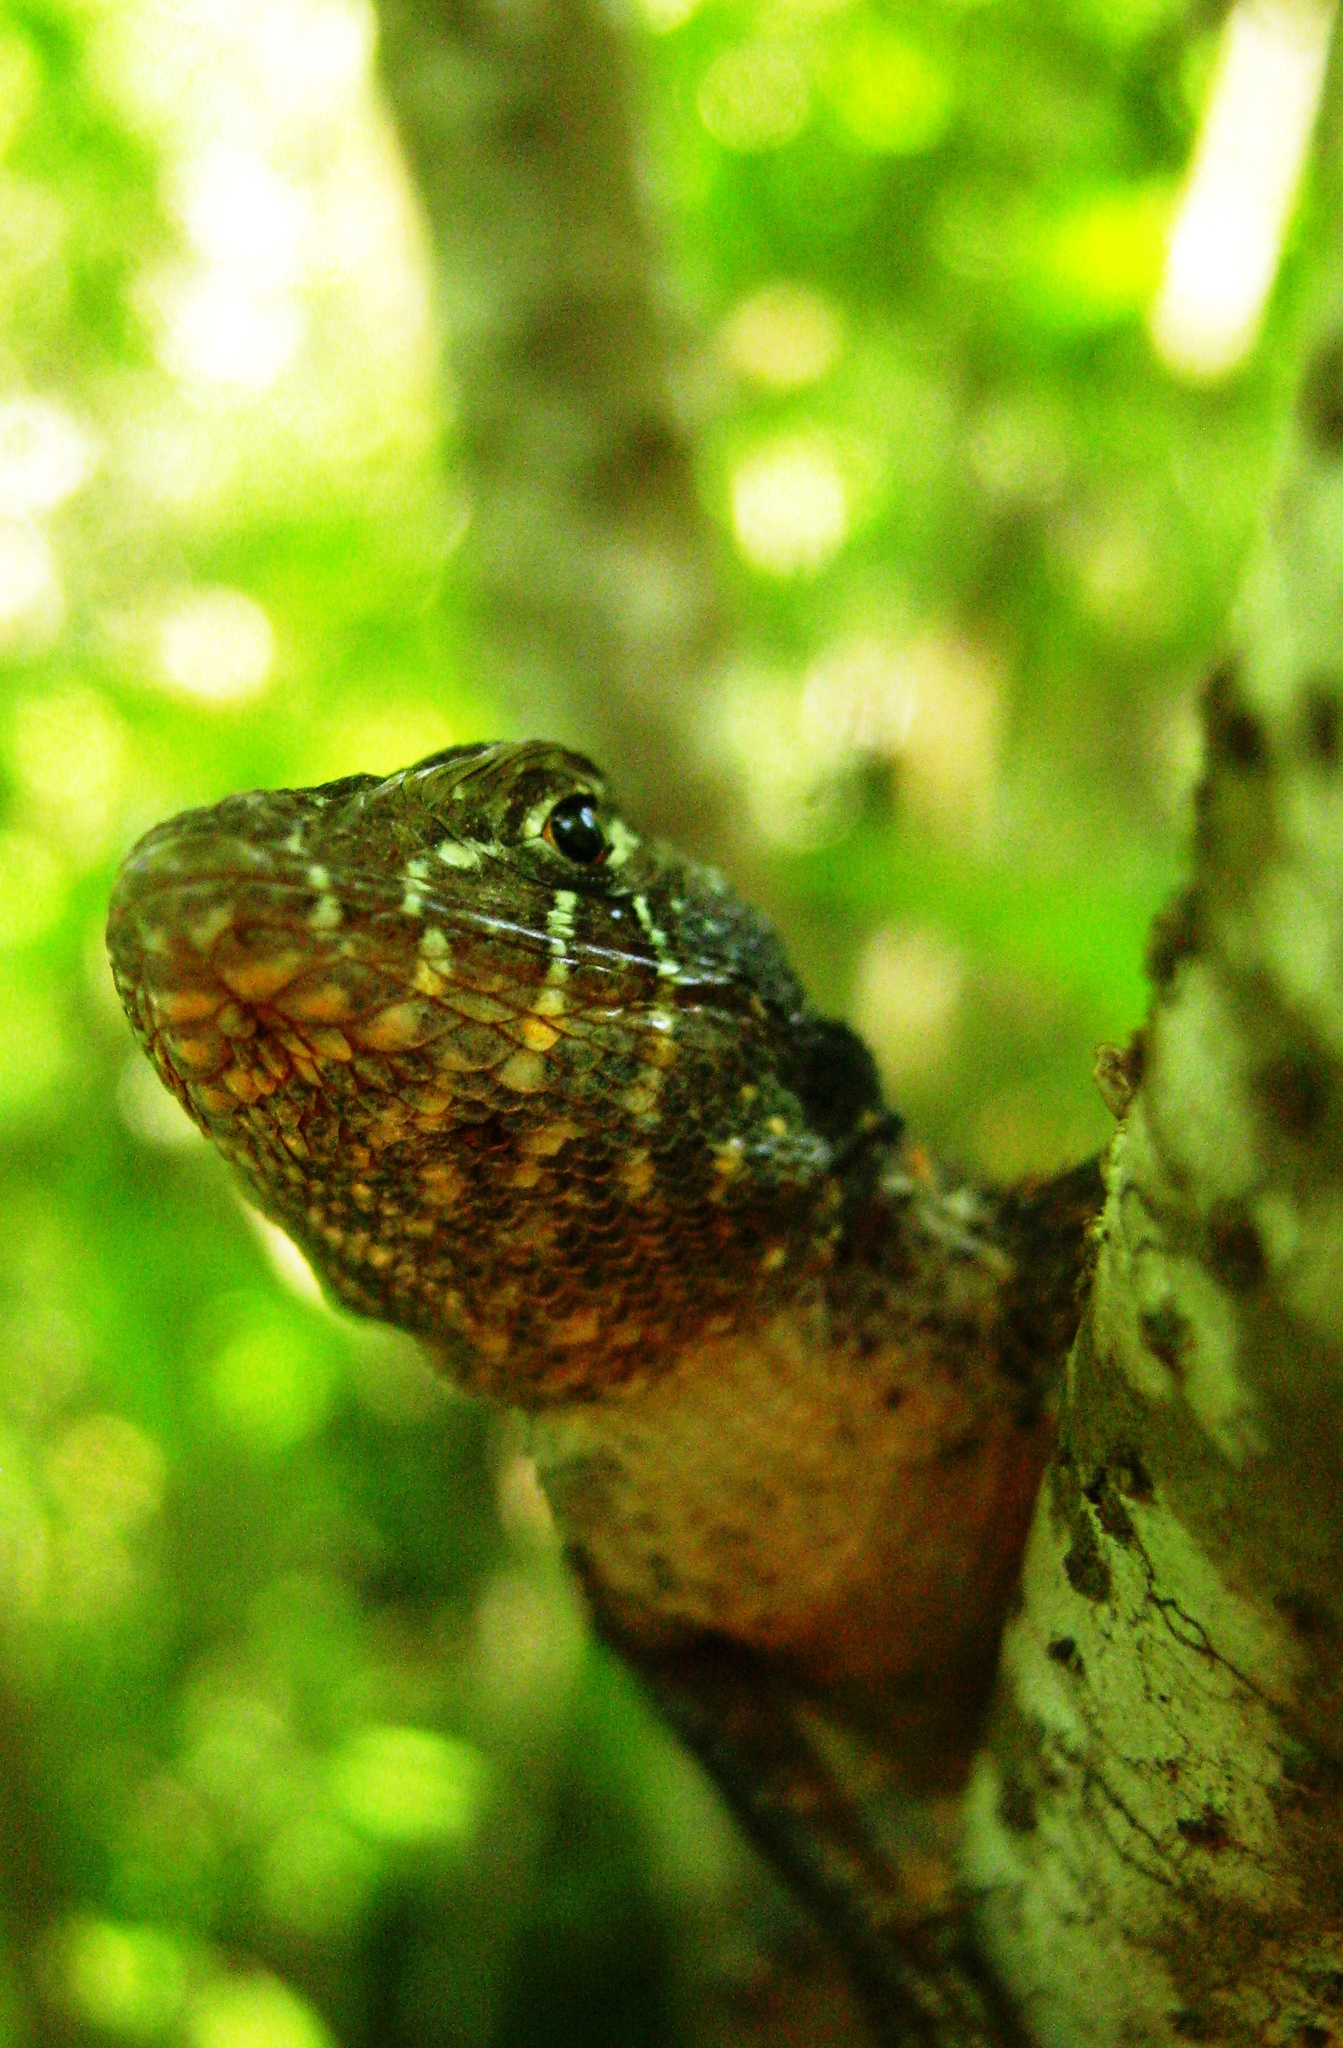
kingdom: Animalia
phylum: Chordata
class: Squamata
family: Phrynosomatidae
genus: Sceloporus
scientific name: Sceloporus utiformis
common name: Antesator
